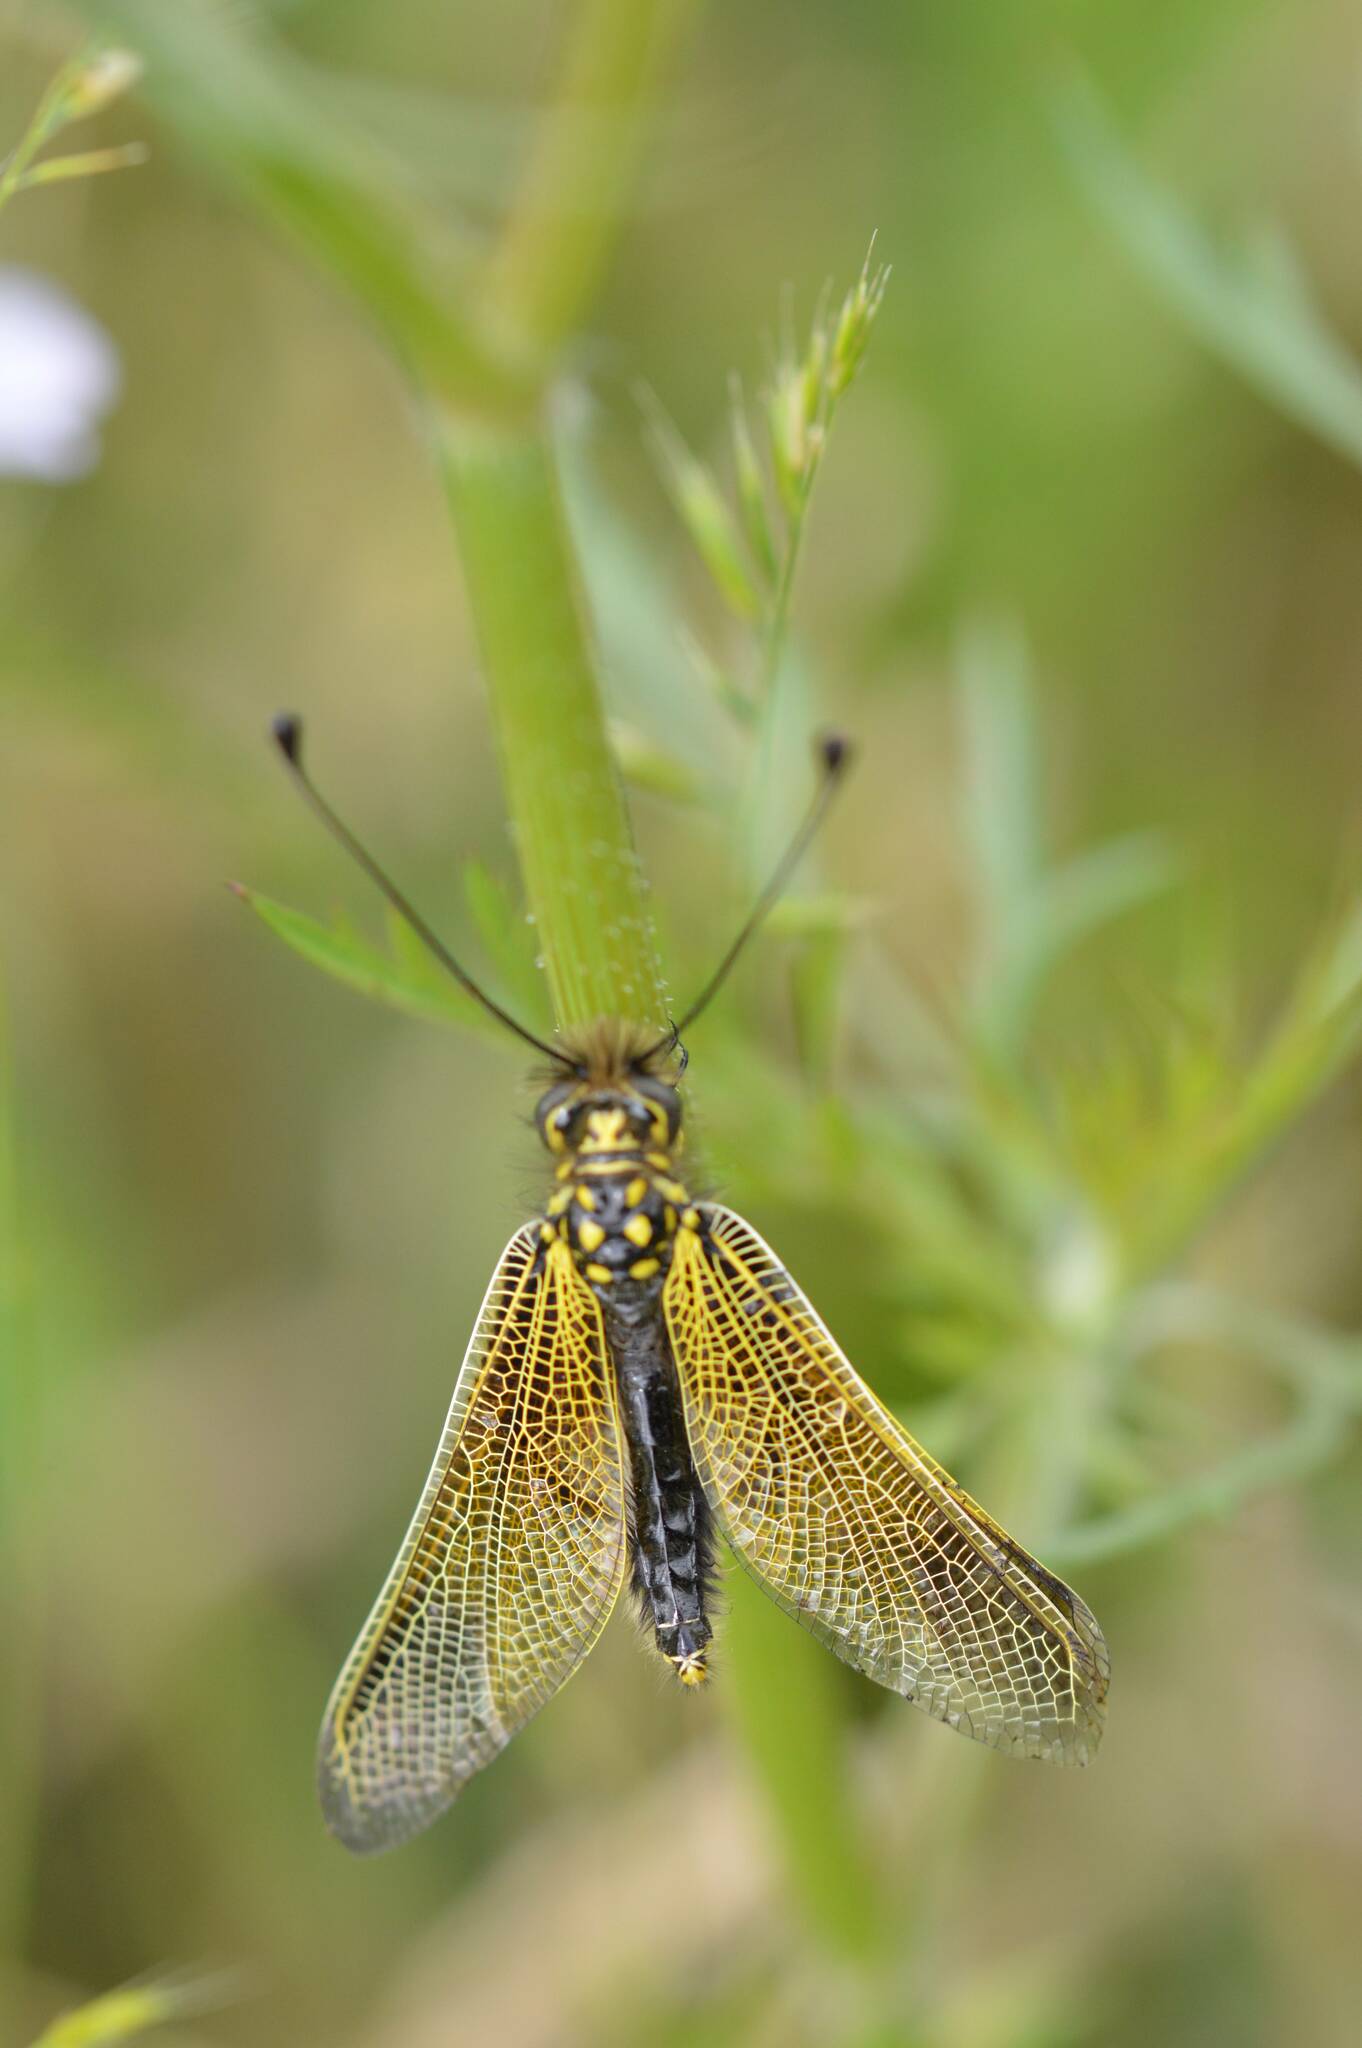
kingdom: Animalia
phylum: Arthropoda
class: Insecta
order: Neuroptera
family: Ascalaphidae
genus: Libelloides
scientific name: Libelloides ictericus
